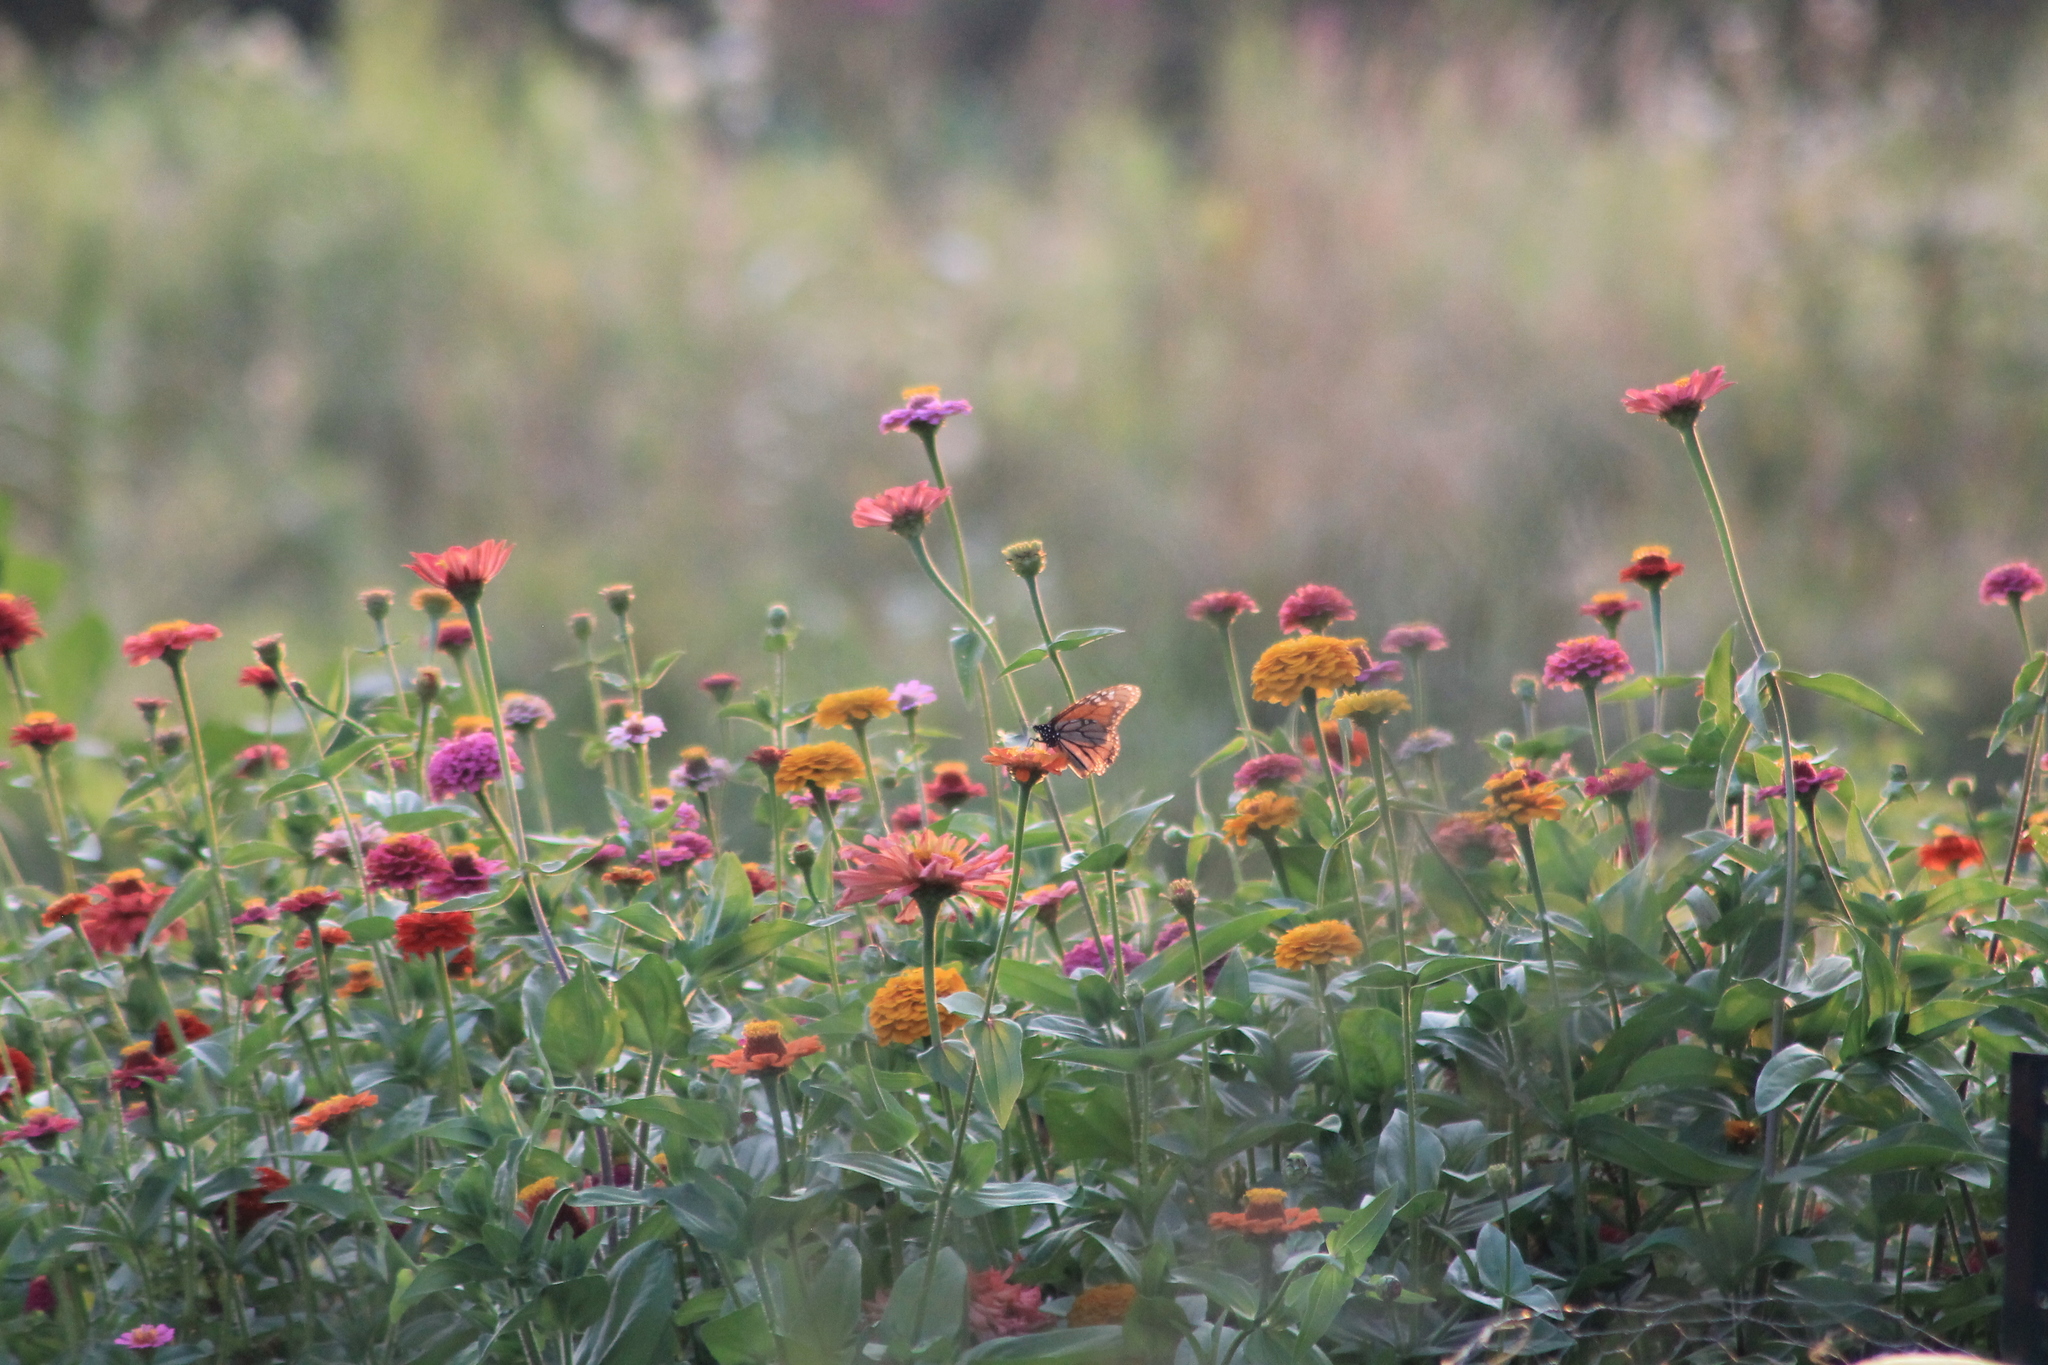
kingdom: Animalia
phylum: Arthropoda
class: Insecta
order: Lepidoptera
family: Nymphalidae
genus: Danaus
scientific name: Danaus plexippus
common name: Monarch
